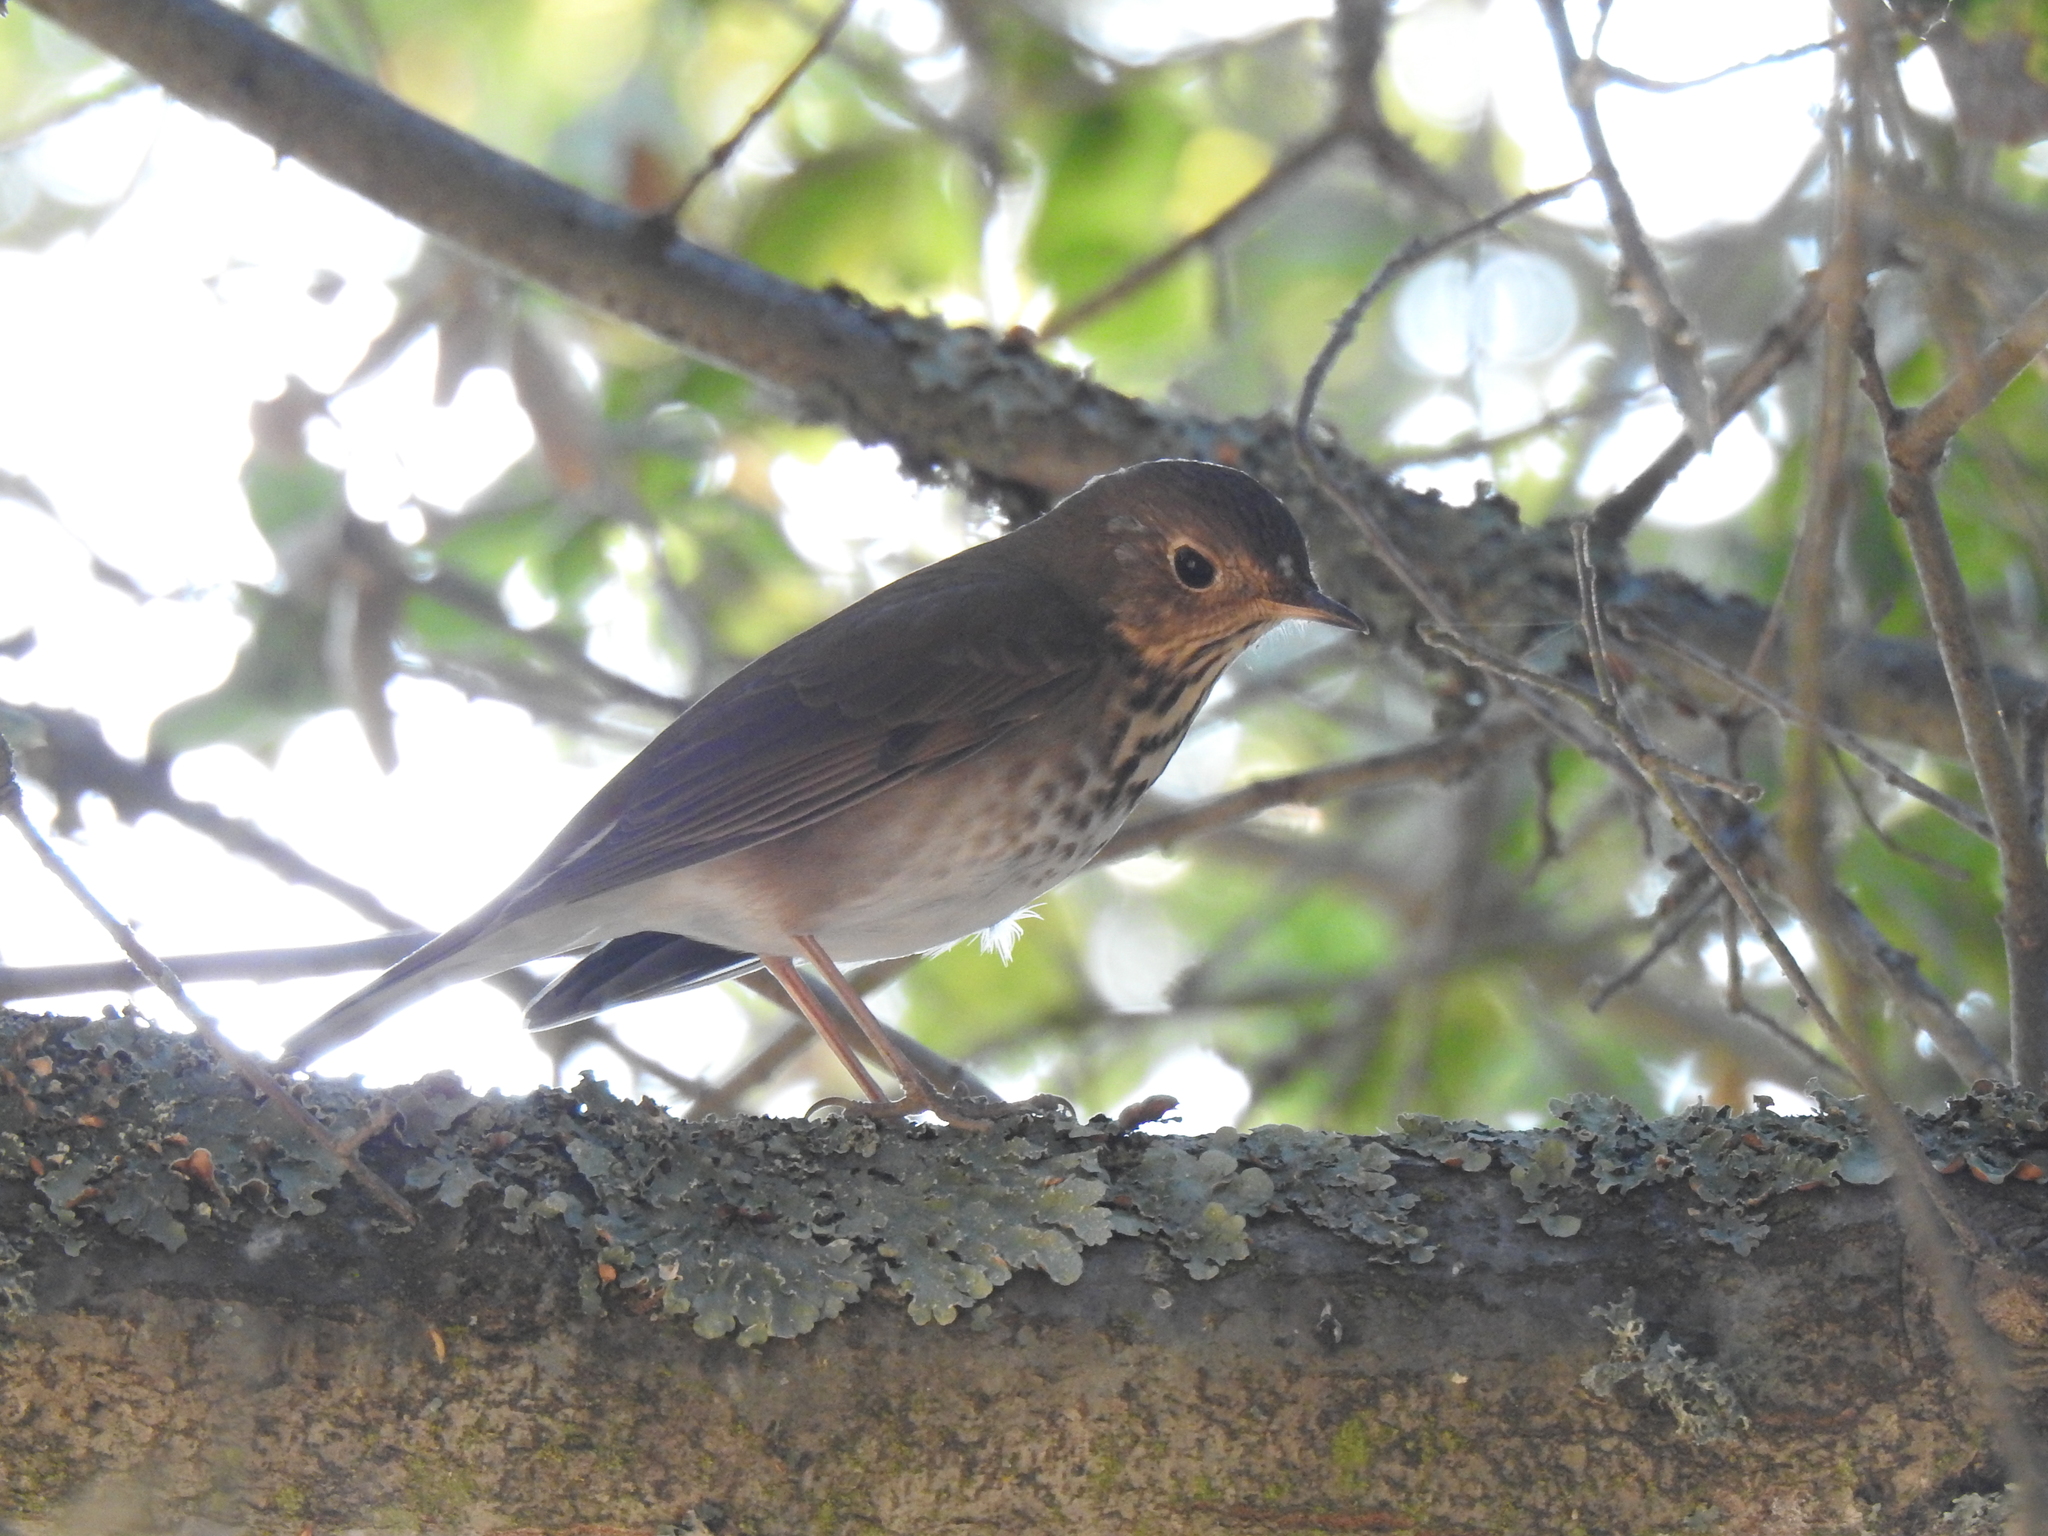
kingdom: Animalia
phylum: Chordata
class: Aves
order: Passeriformes
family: Turdidae
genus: Catharus
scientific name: Catharus guttatus
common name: Hermit thrush
